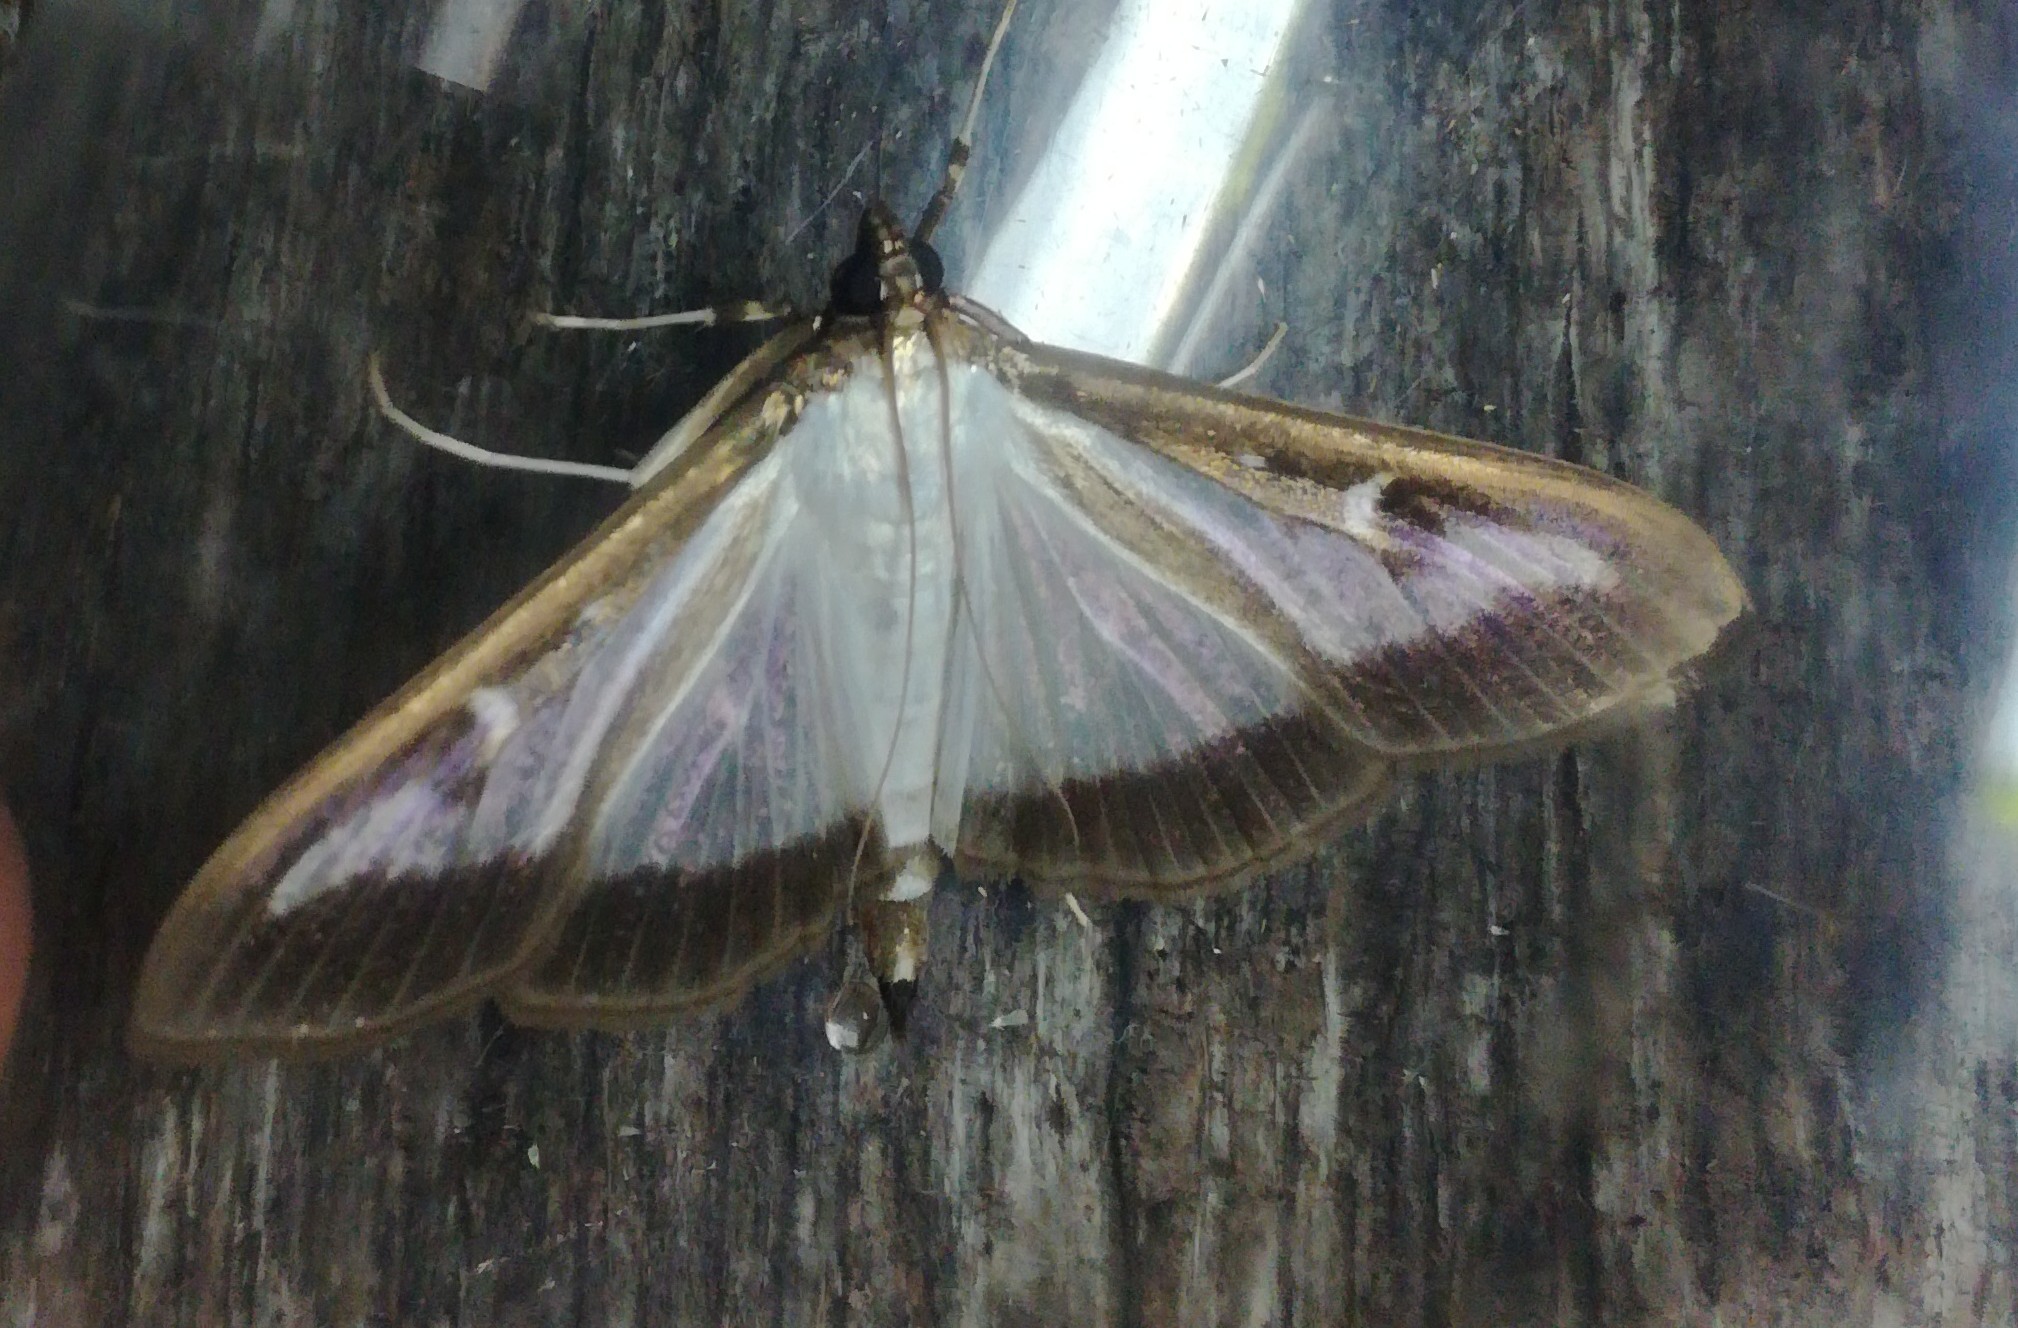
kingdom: Animalia
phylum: Arthropoda
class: Insecta
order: Lepidoptera
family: Crambidae
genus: Cydalima
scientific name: Cydalima perspectalis
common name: Box tree moth
